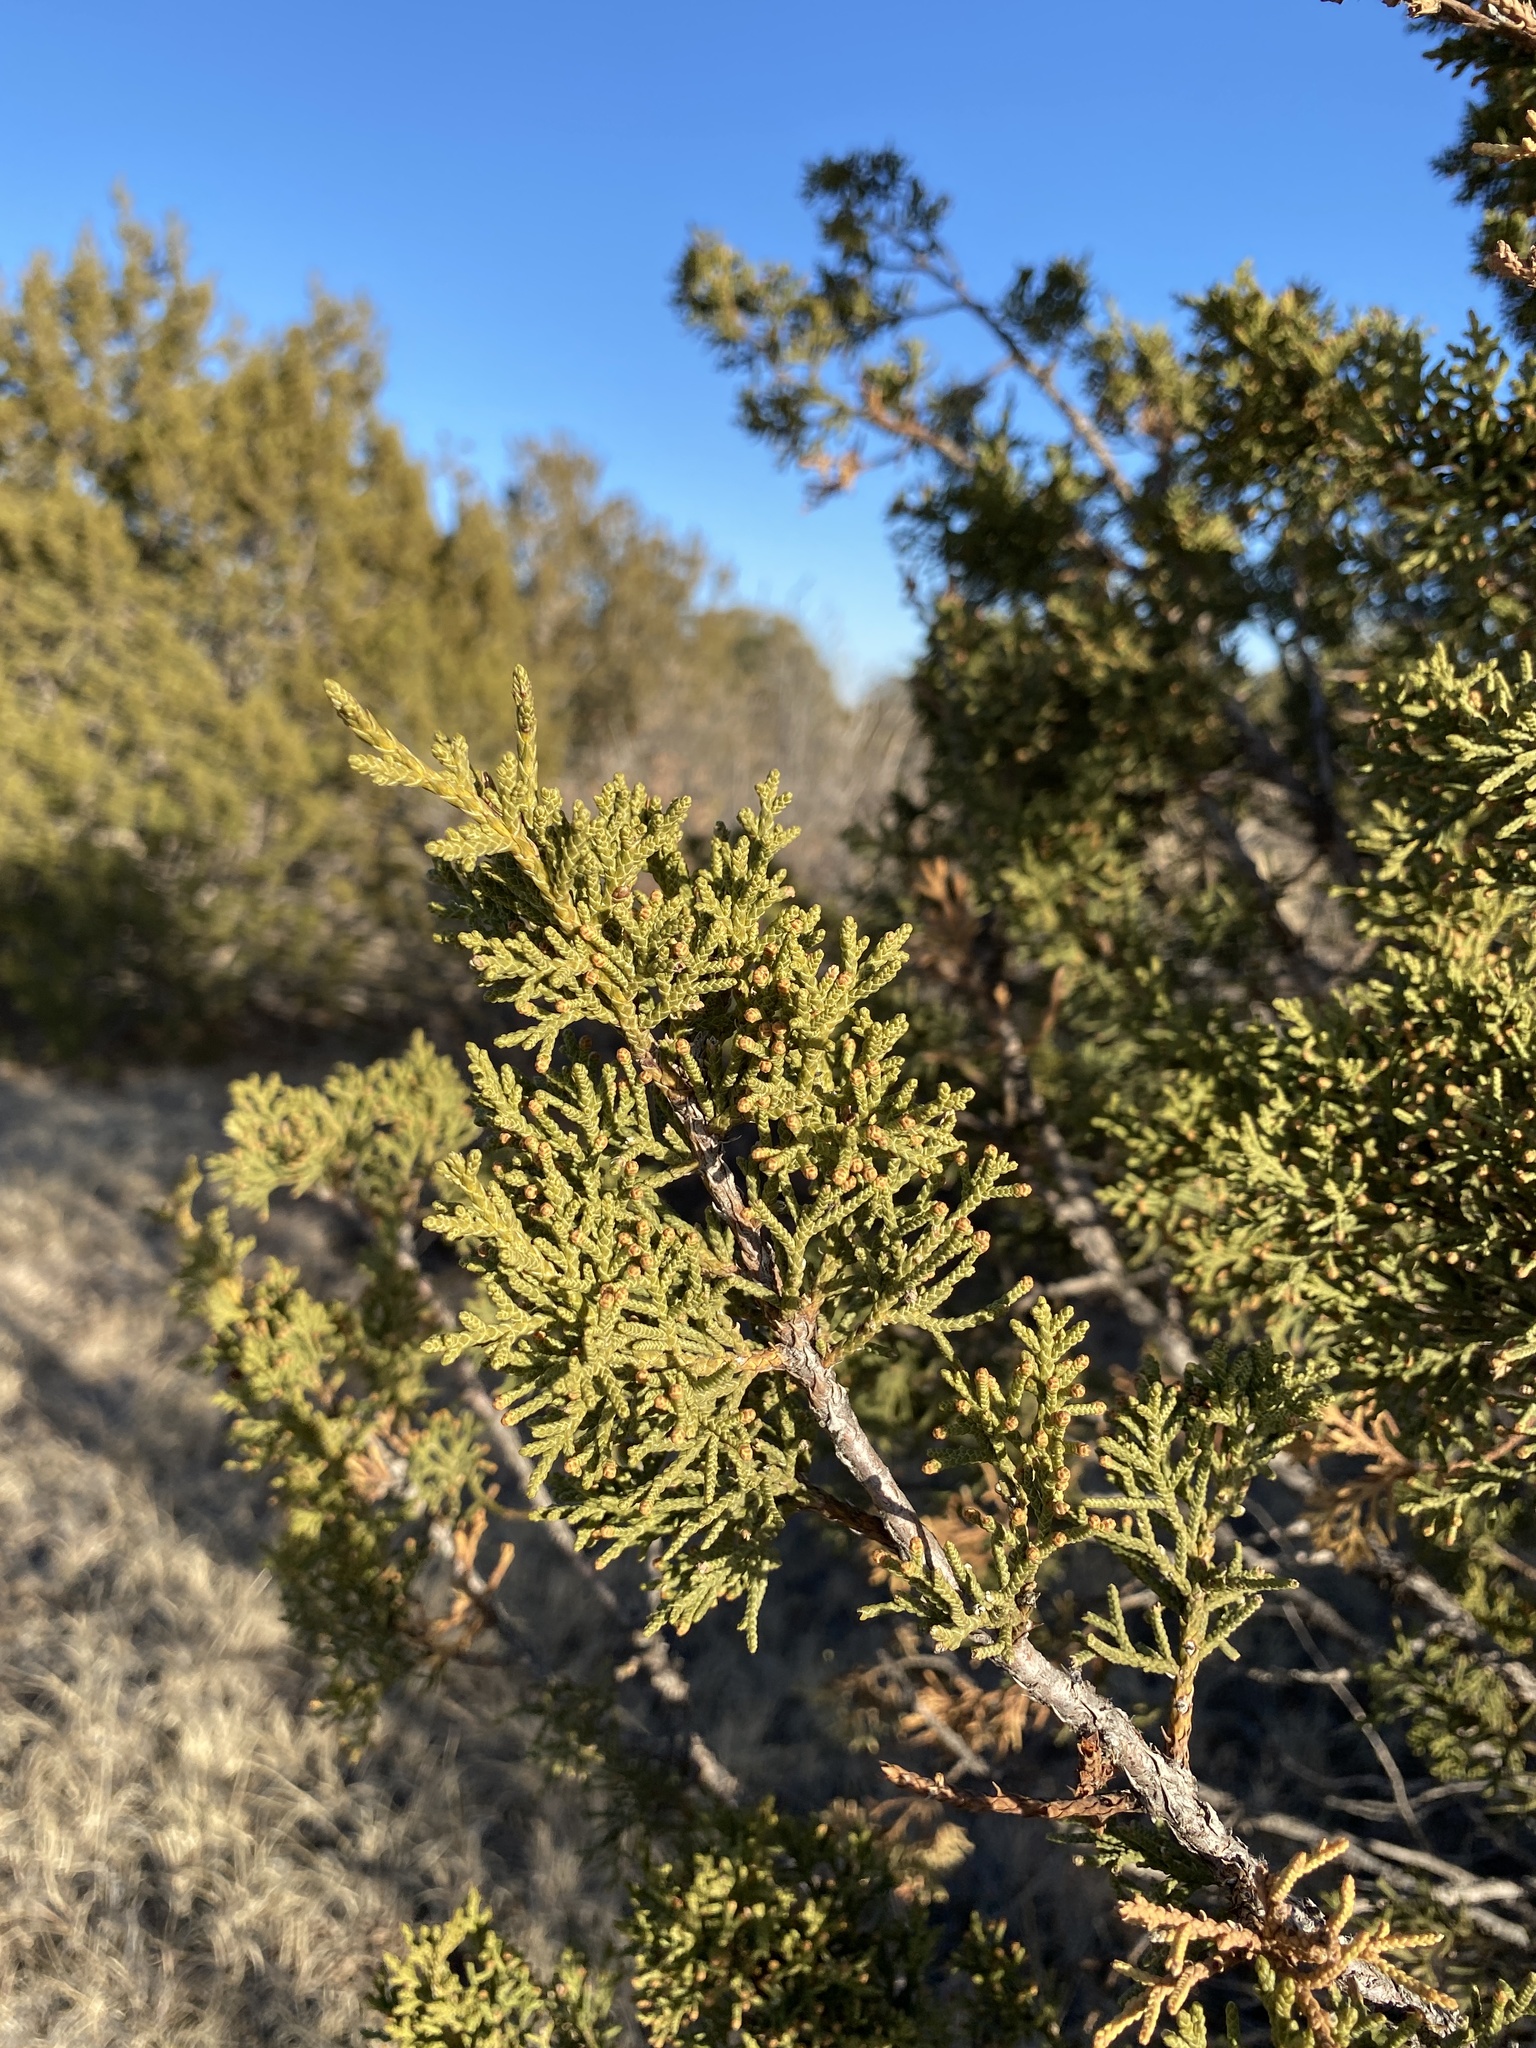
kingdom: Plantae
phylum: Tracheophyta
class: Pinopsida
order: Pinales
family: Cupressaceae
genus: Juniperus
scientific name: Juniperus monosperma
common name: One-seed juniper
